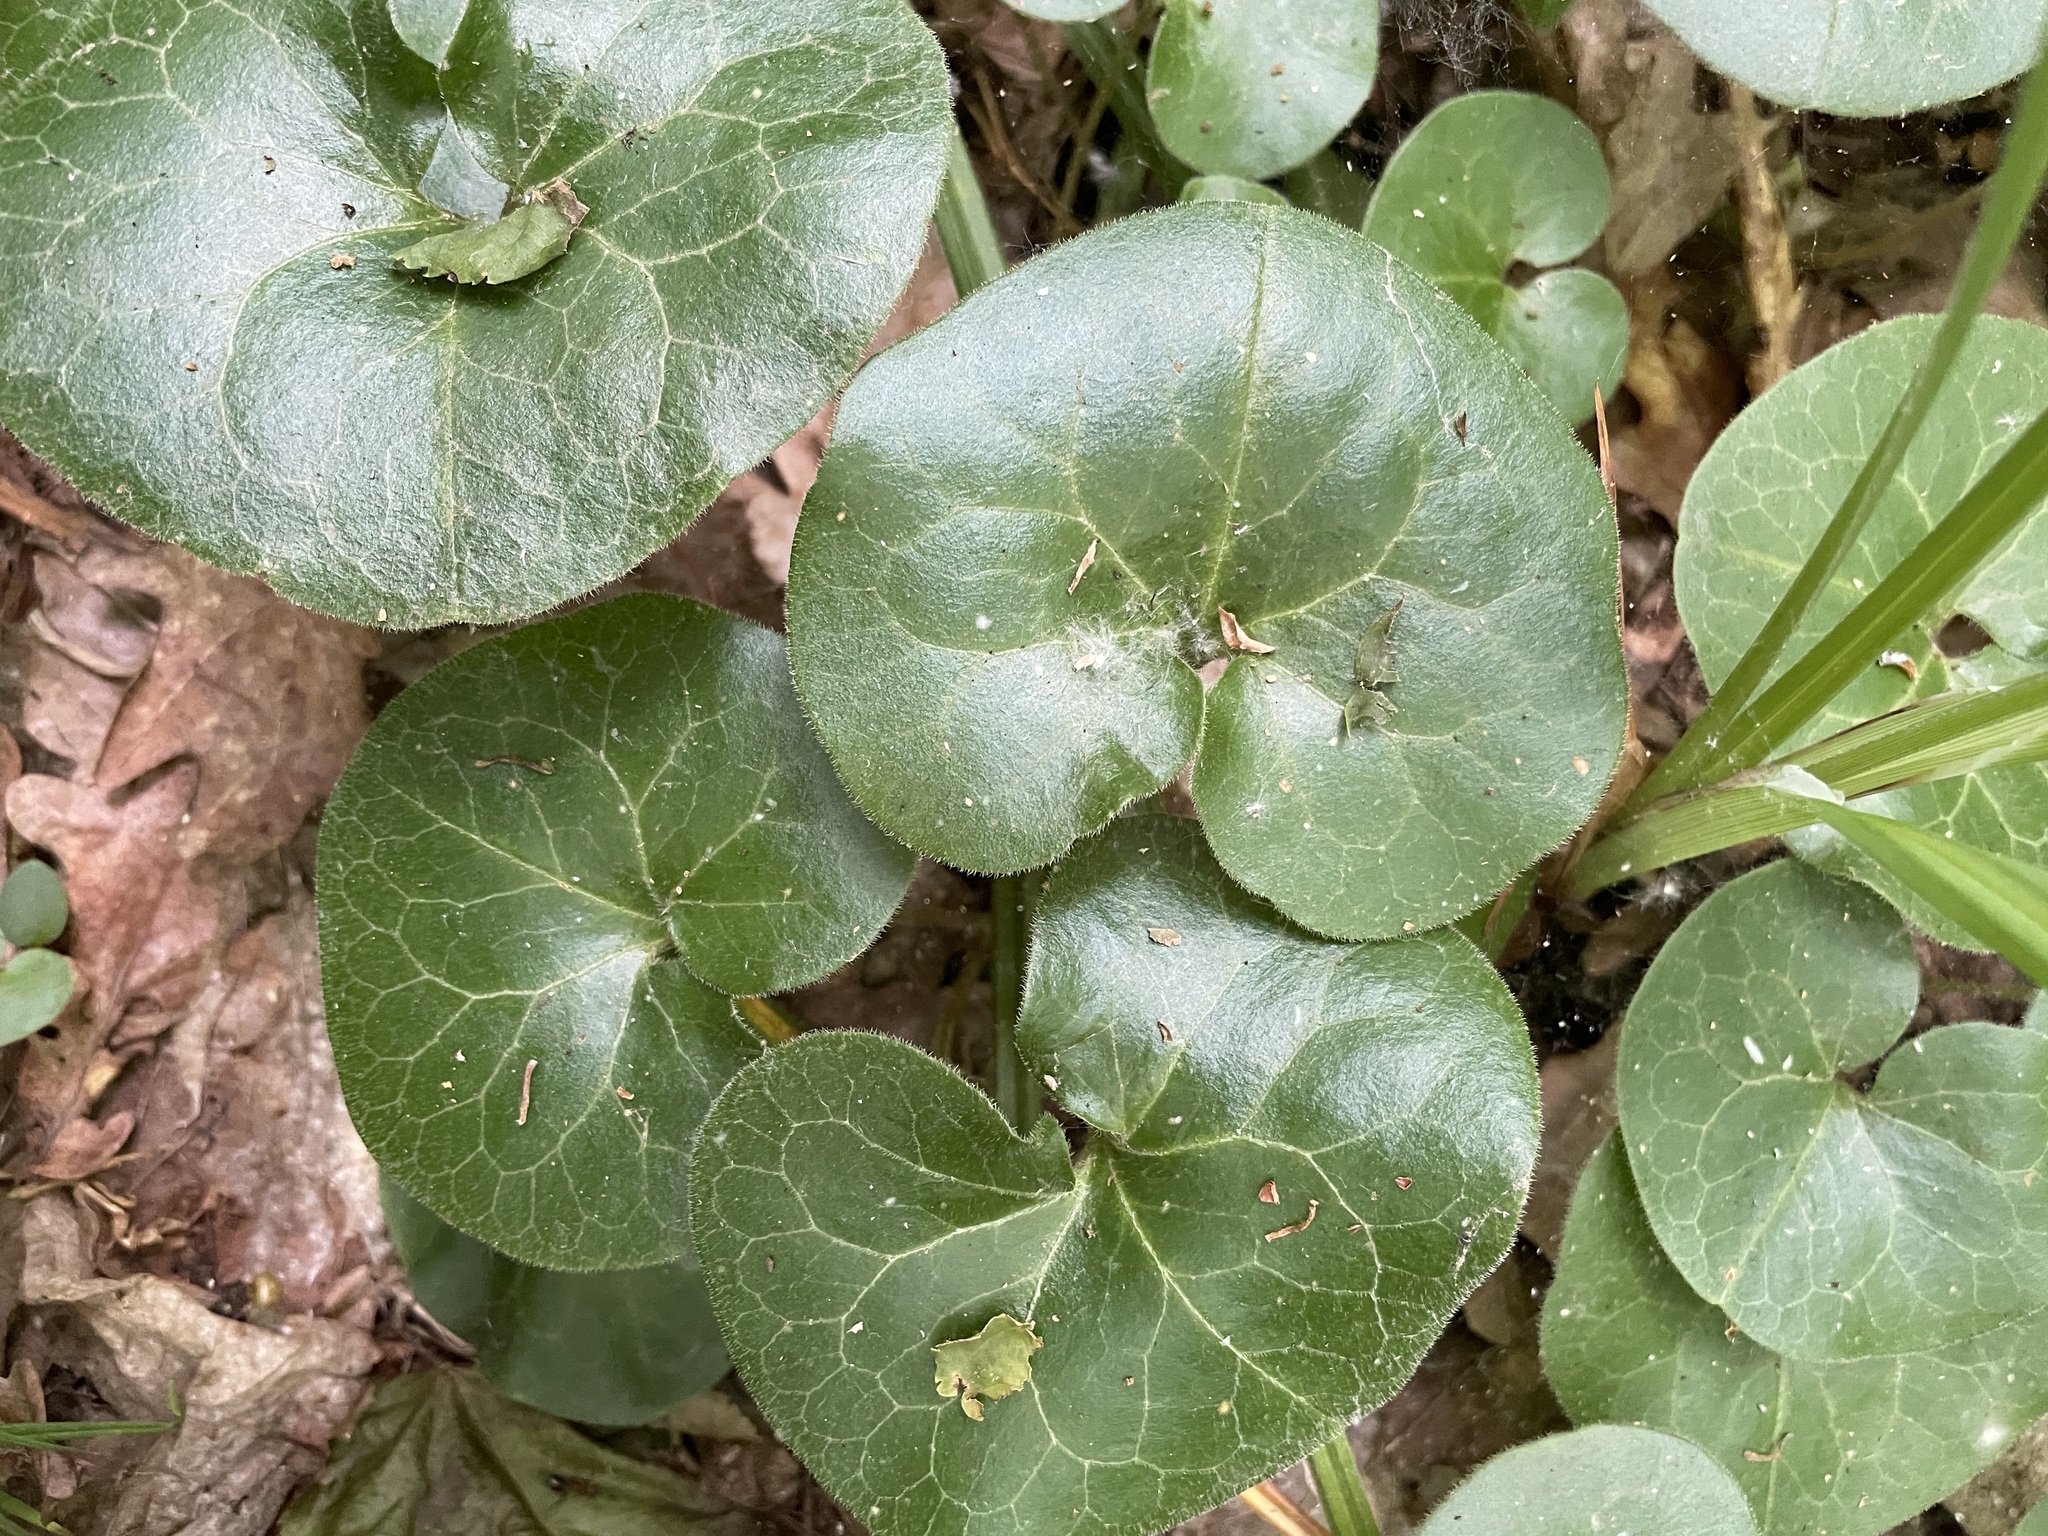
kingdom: Plantae
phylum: Tracheophyta
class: Magnoliopsida
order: Piperales
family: Aristolochiaceae
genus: Asarum
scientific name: Asarum europaeum
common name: Asarabacca
